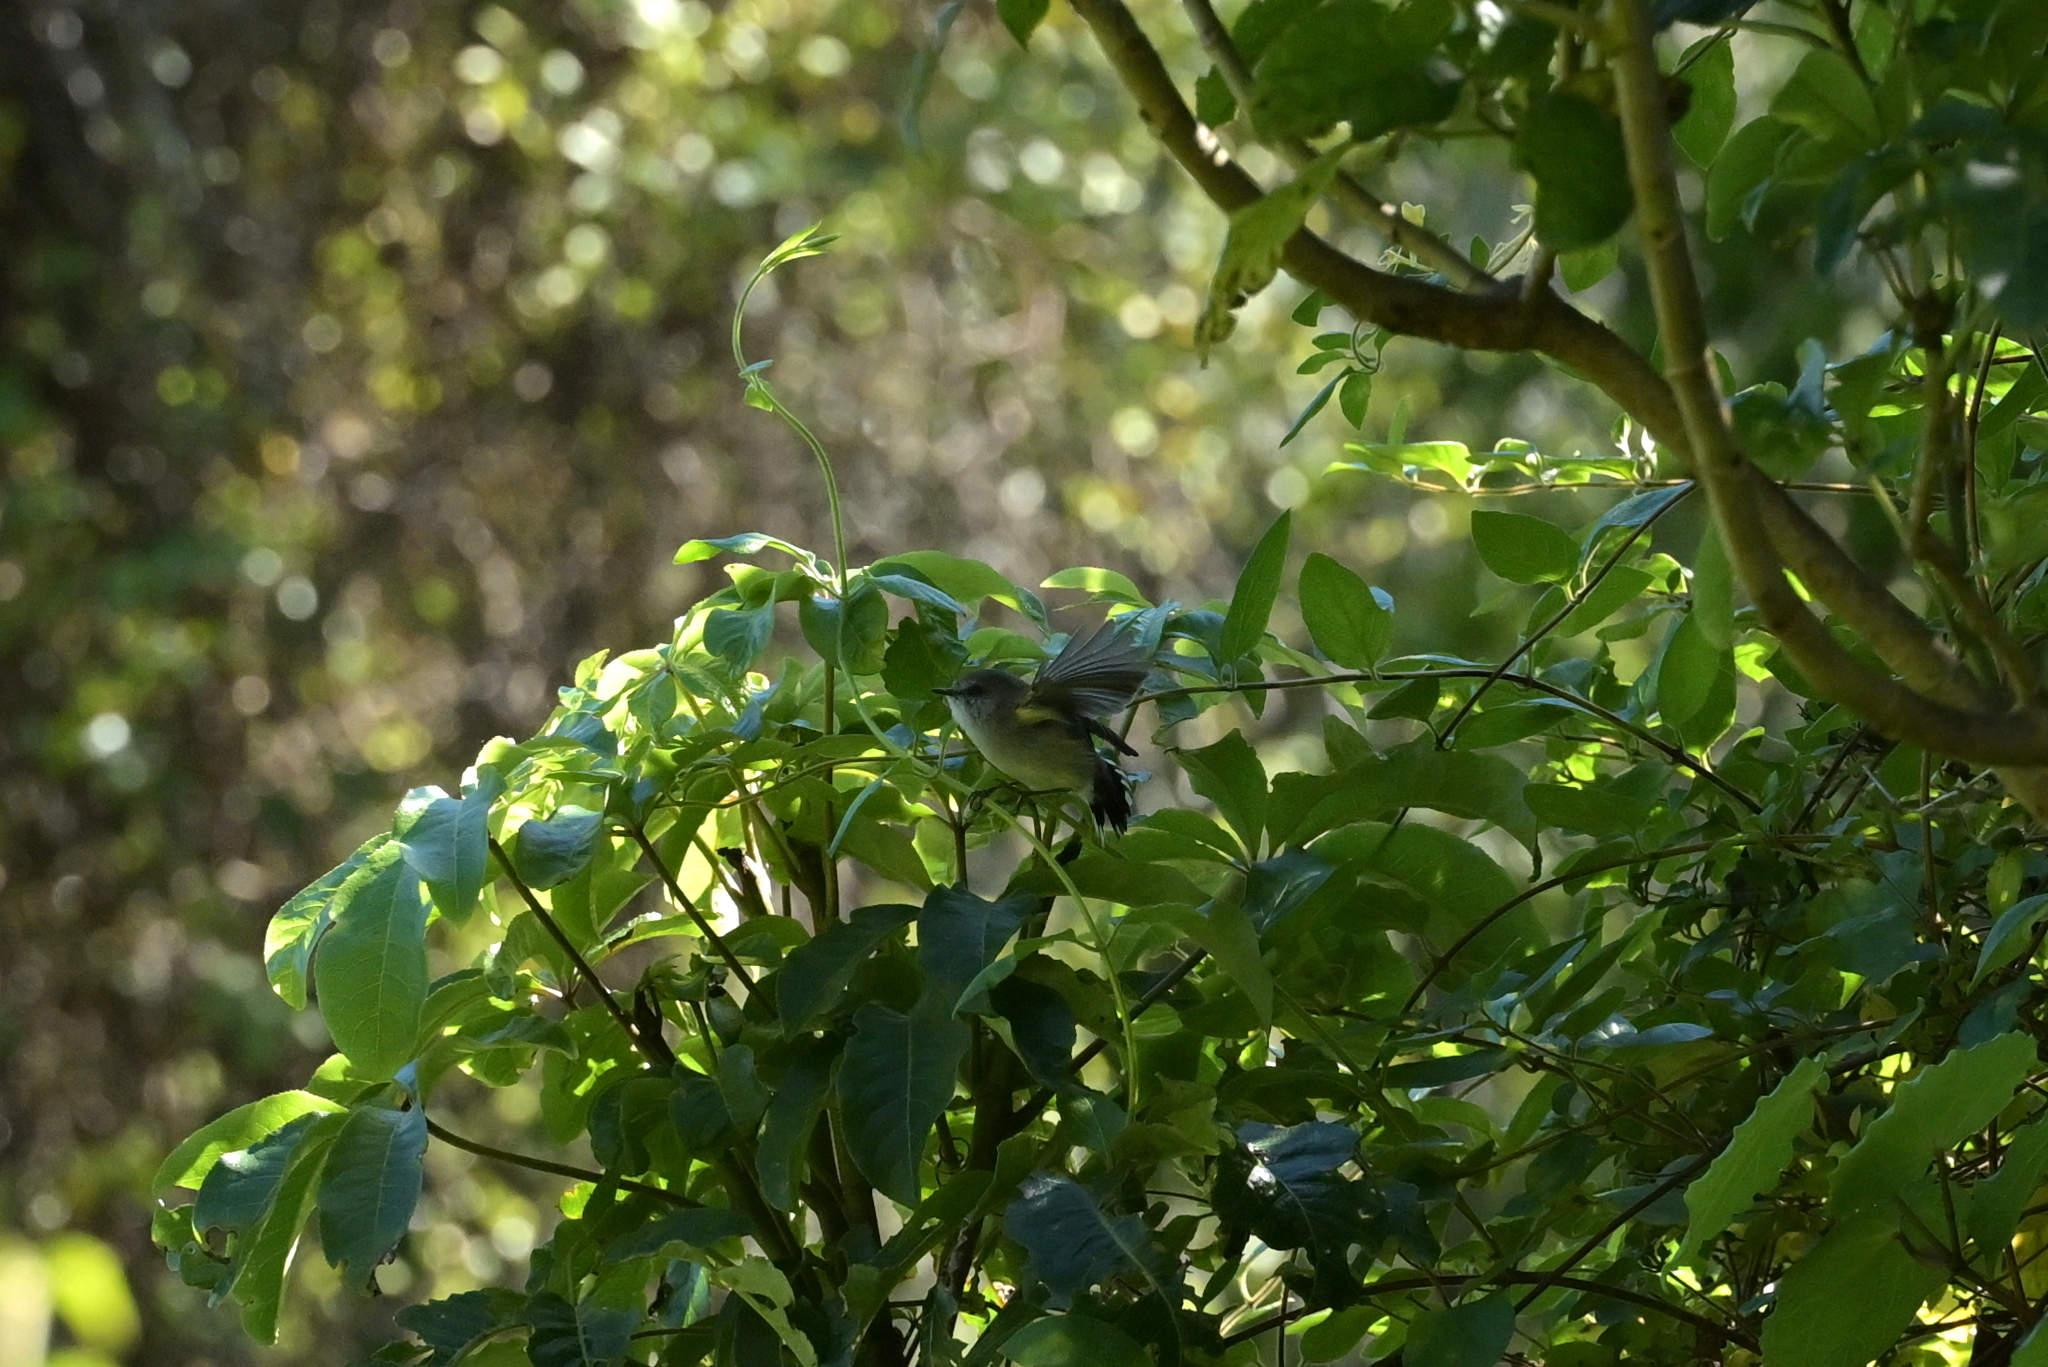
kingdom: Animalia
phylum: Chordata
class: Aves
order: Passeriformes
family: Acanthizidae
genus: Gerygone
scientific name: Gerygone igata
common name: Grey gerygone
